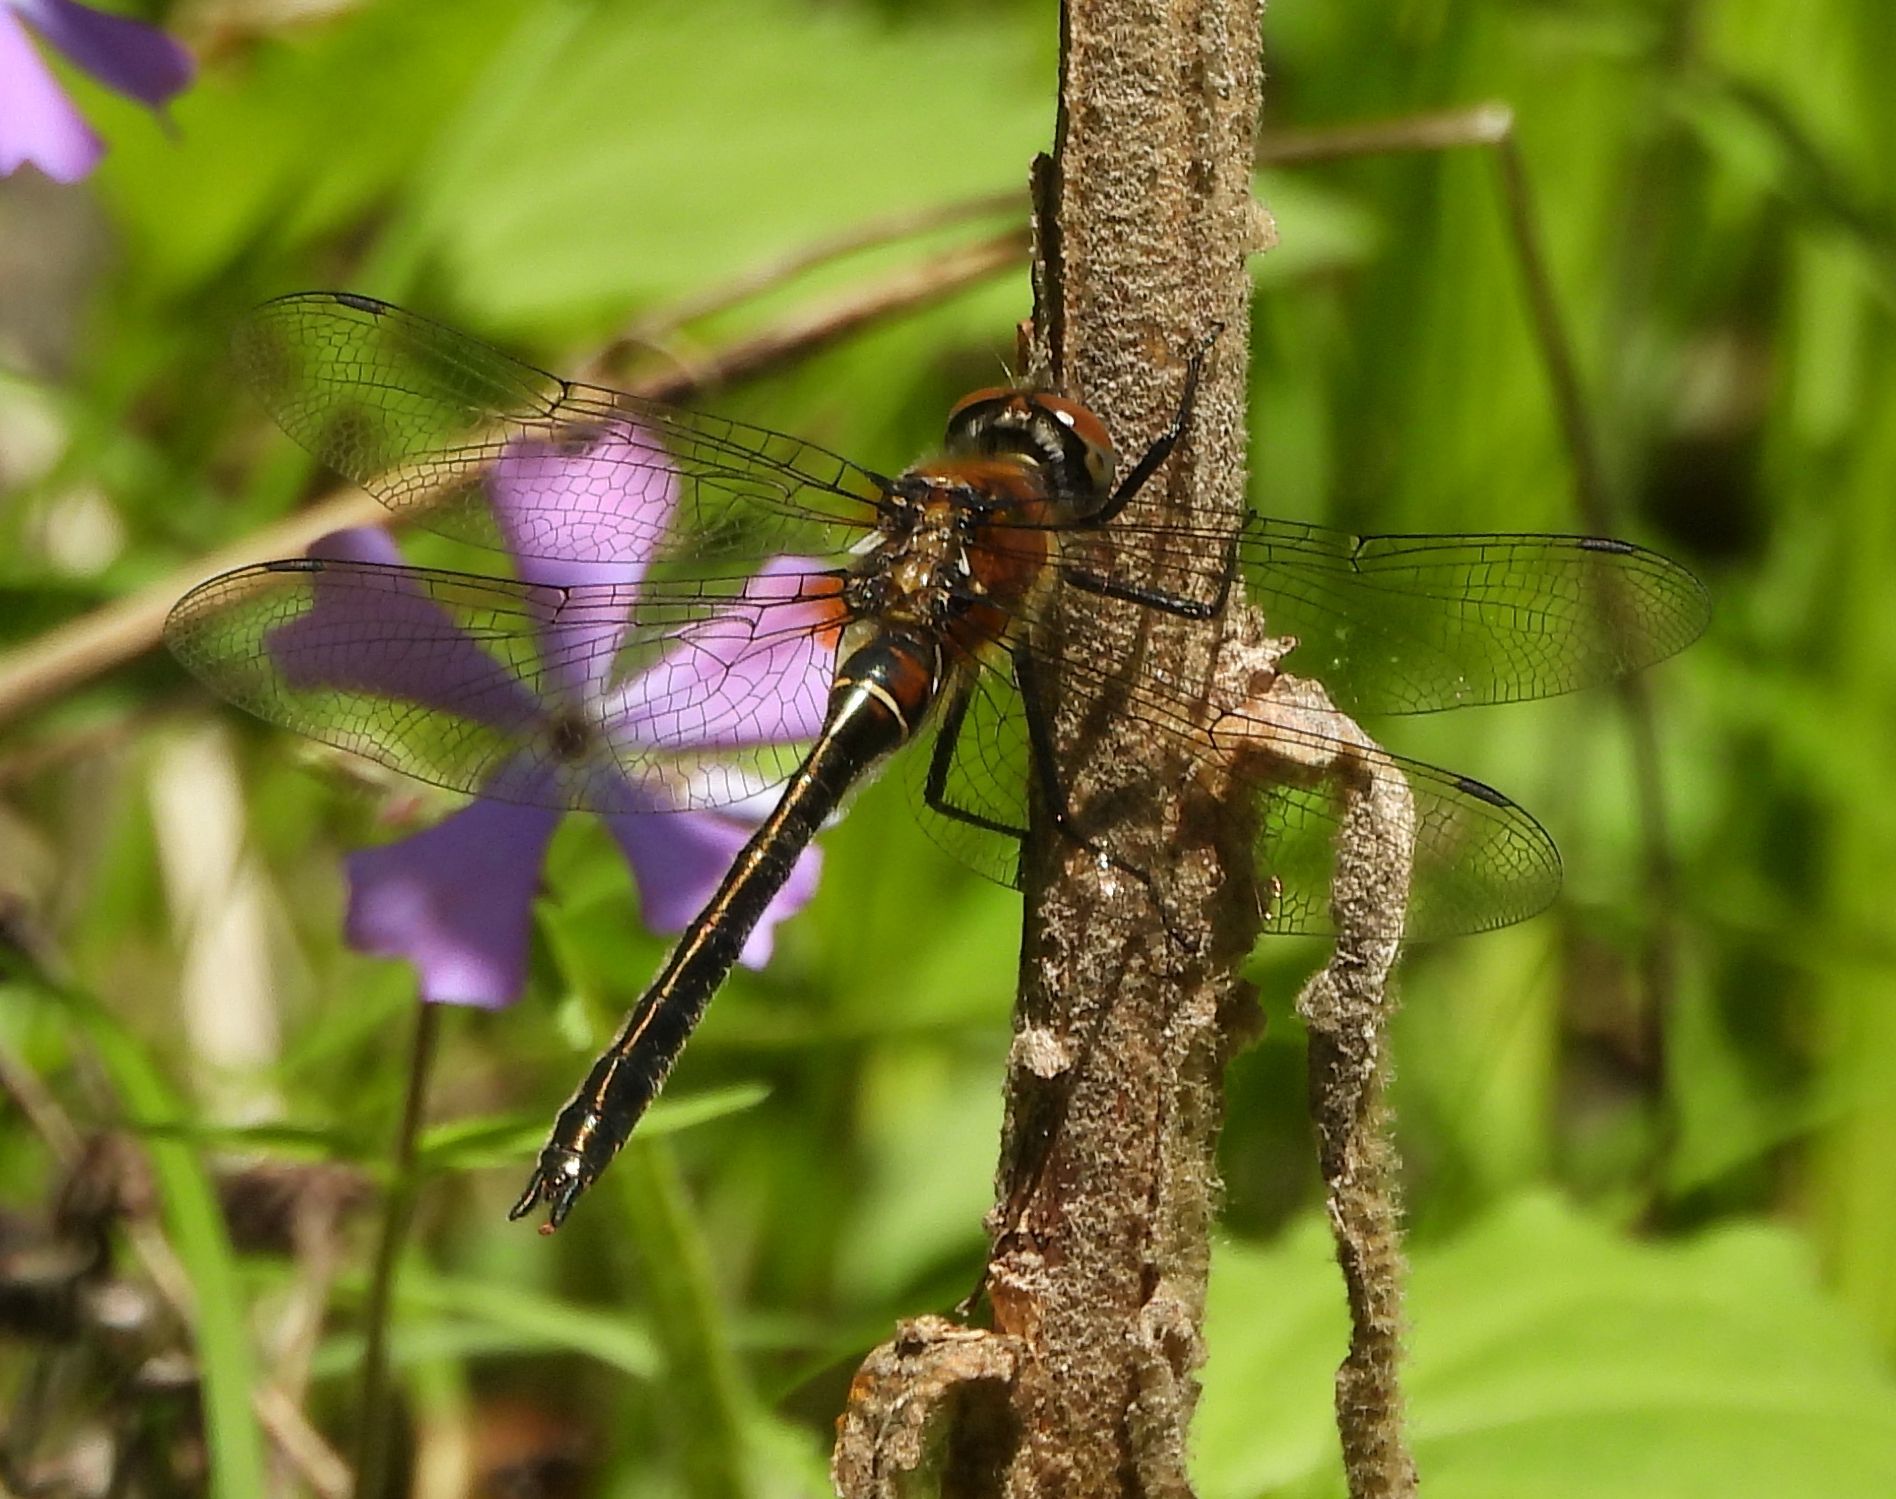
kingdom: Animalia
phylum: Arthropoda
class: Insecta
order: Odonata
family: Corduliidae
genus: Cordulia
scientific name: Cordulia shurtleffii
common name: American emerald
